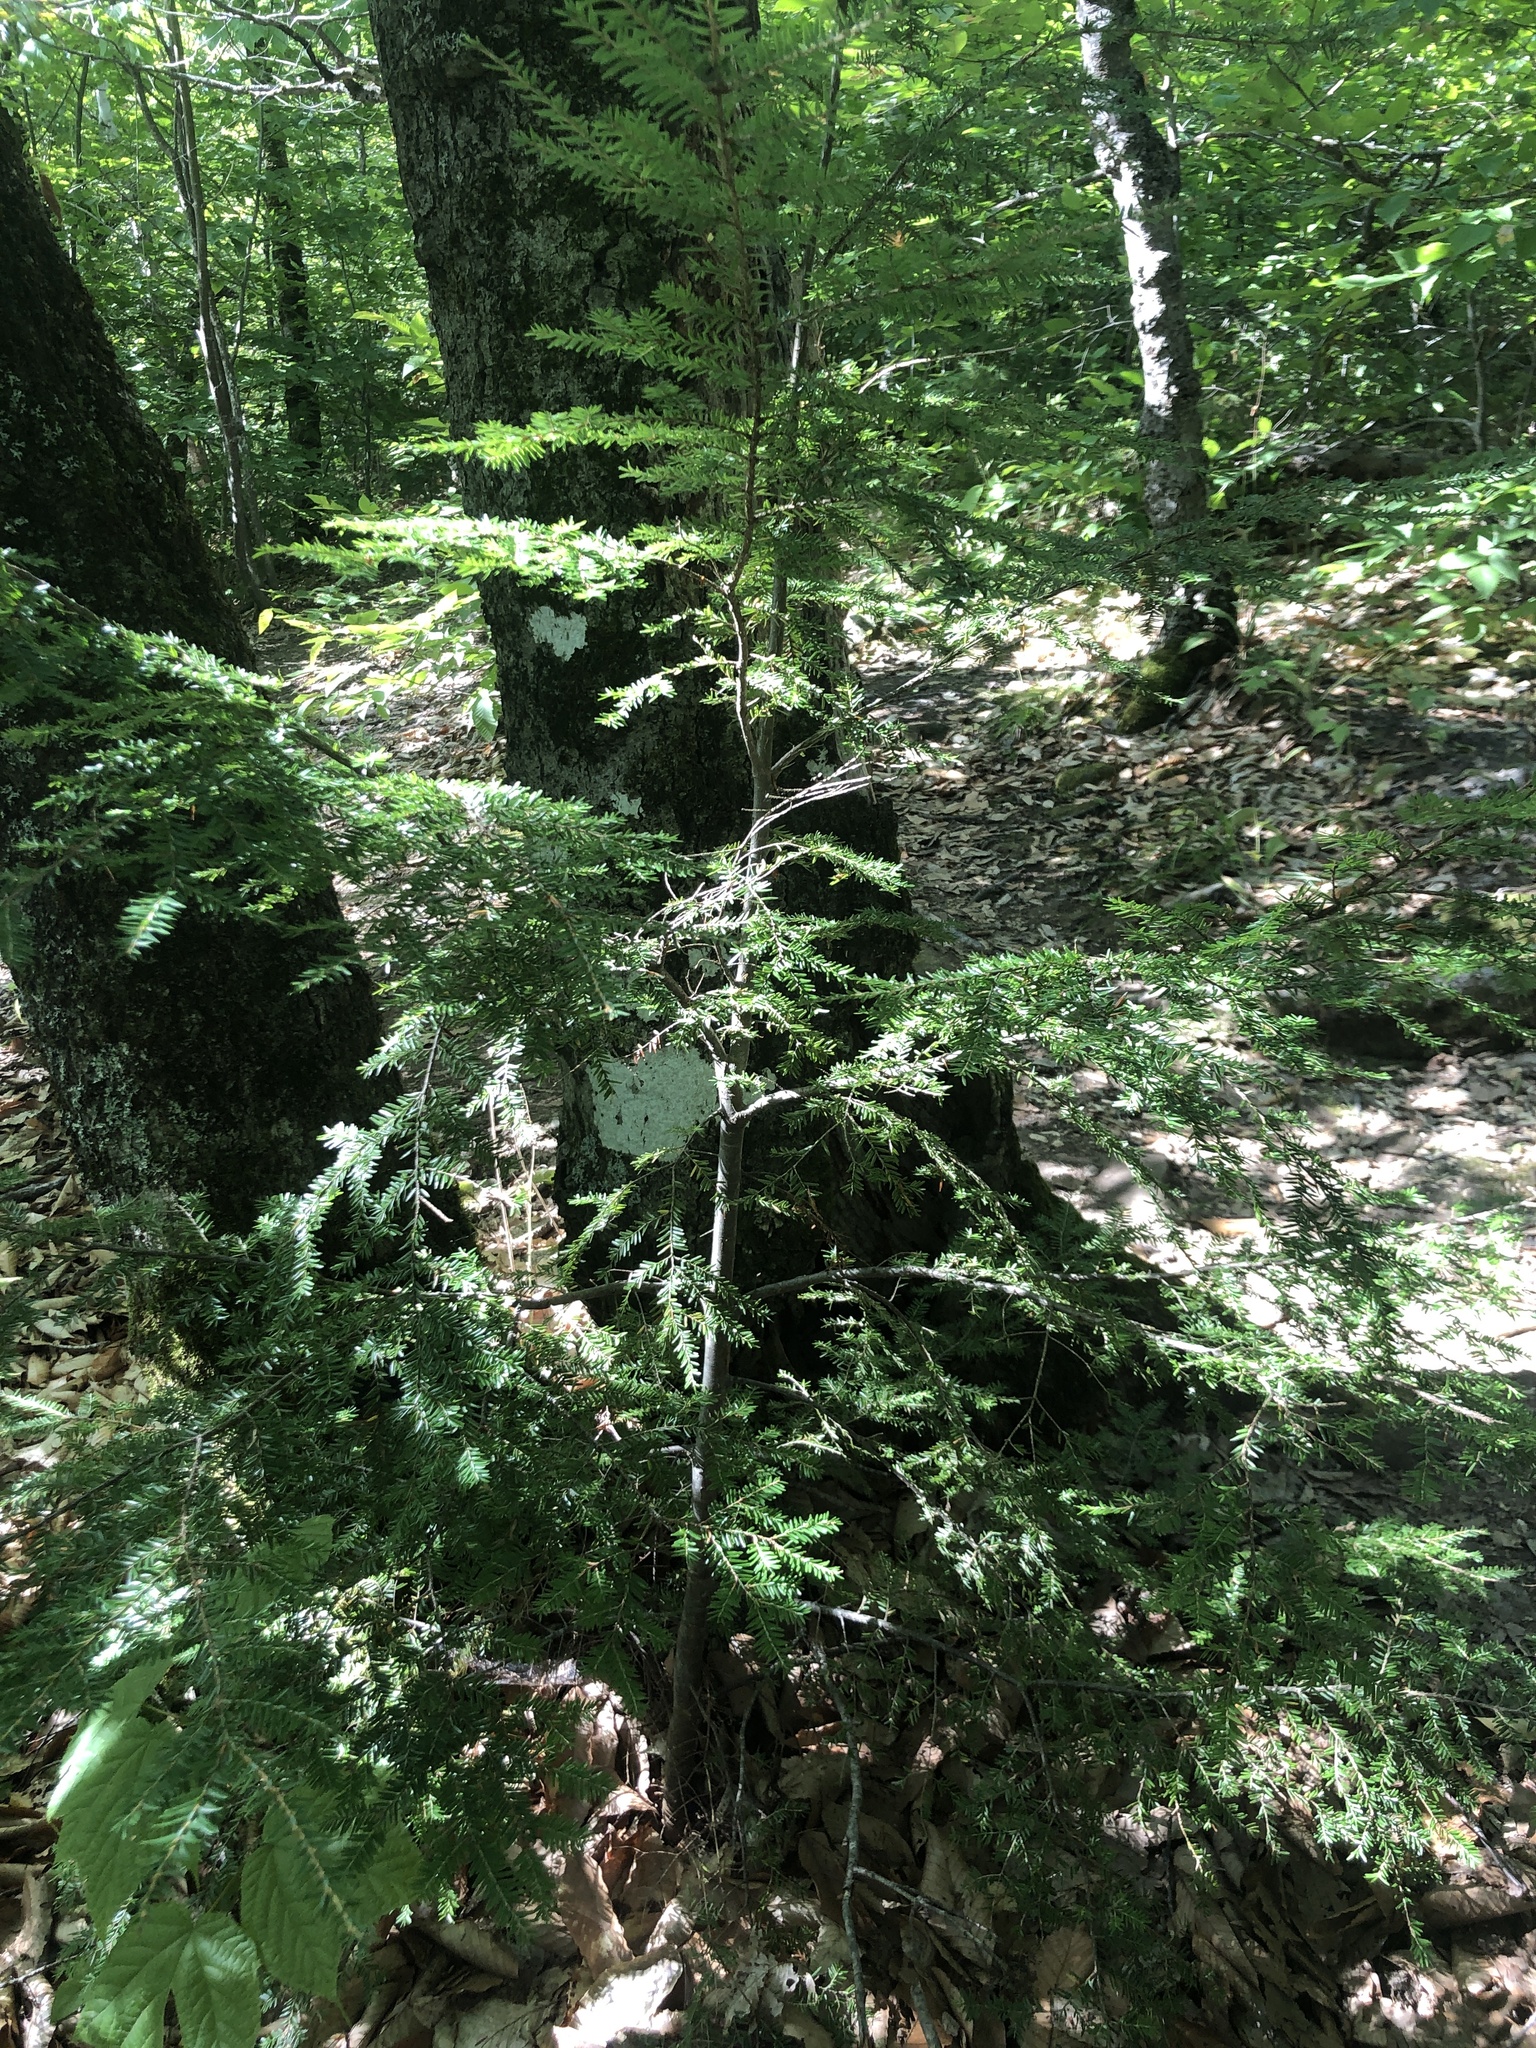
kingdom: Plantae
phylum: Tracheophyta
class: Pinopsida
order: Pinales
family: Pinaceae
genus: Tsuga
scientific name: Tsuga canadensis
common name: Eastern hemlock
